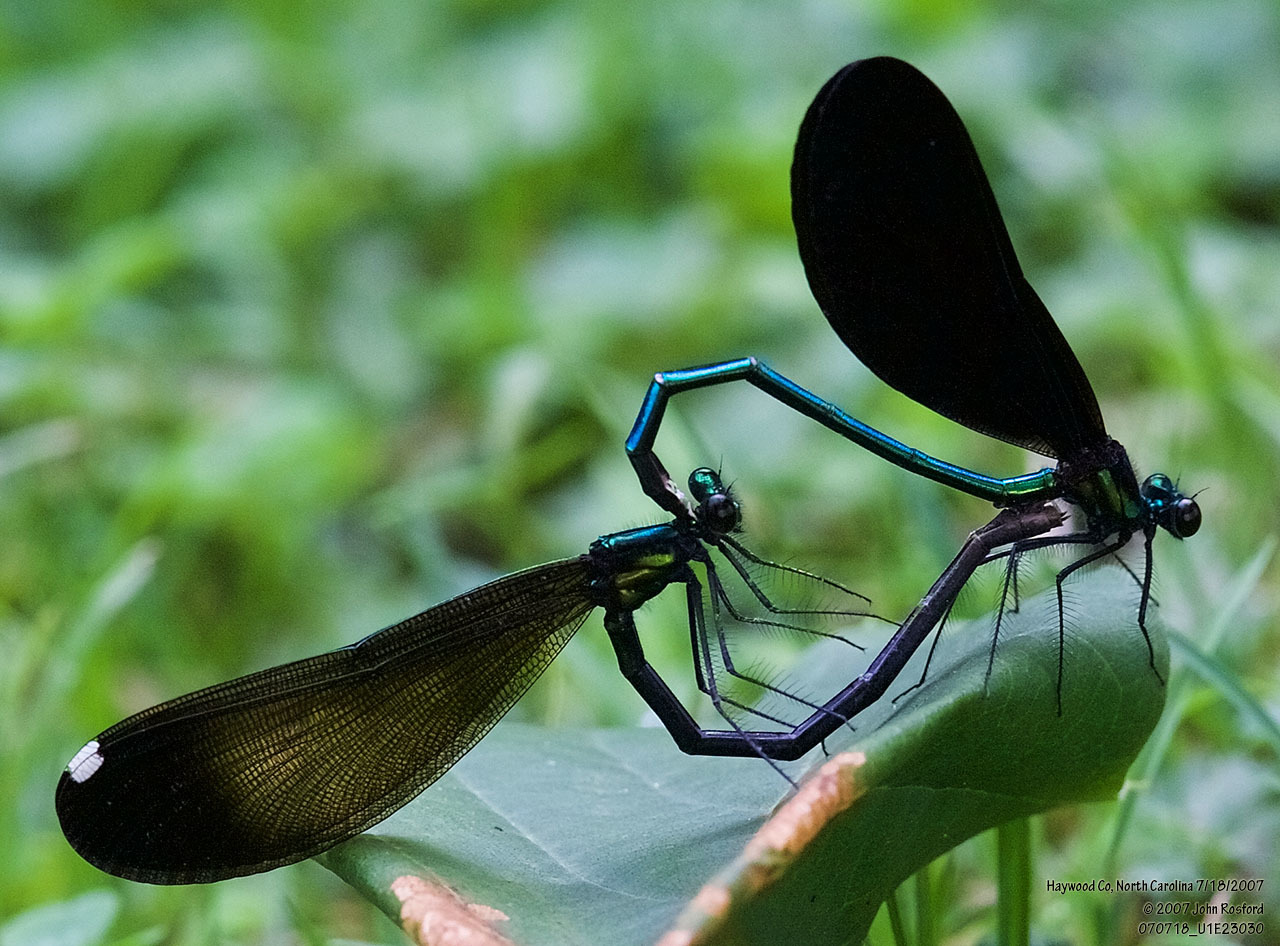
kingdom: Animalia
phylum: Arthropoda
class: Insecta
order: Odonata
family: Calopterygidae
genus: Calopteryx
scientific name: Calopteryx maculata
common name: Ebony jewelwing
